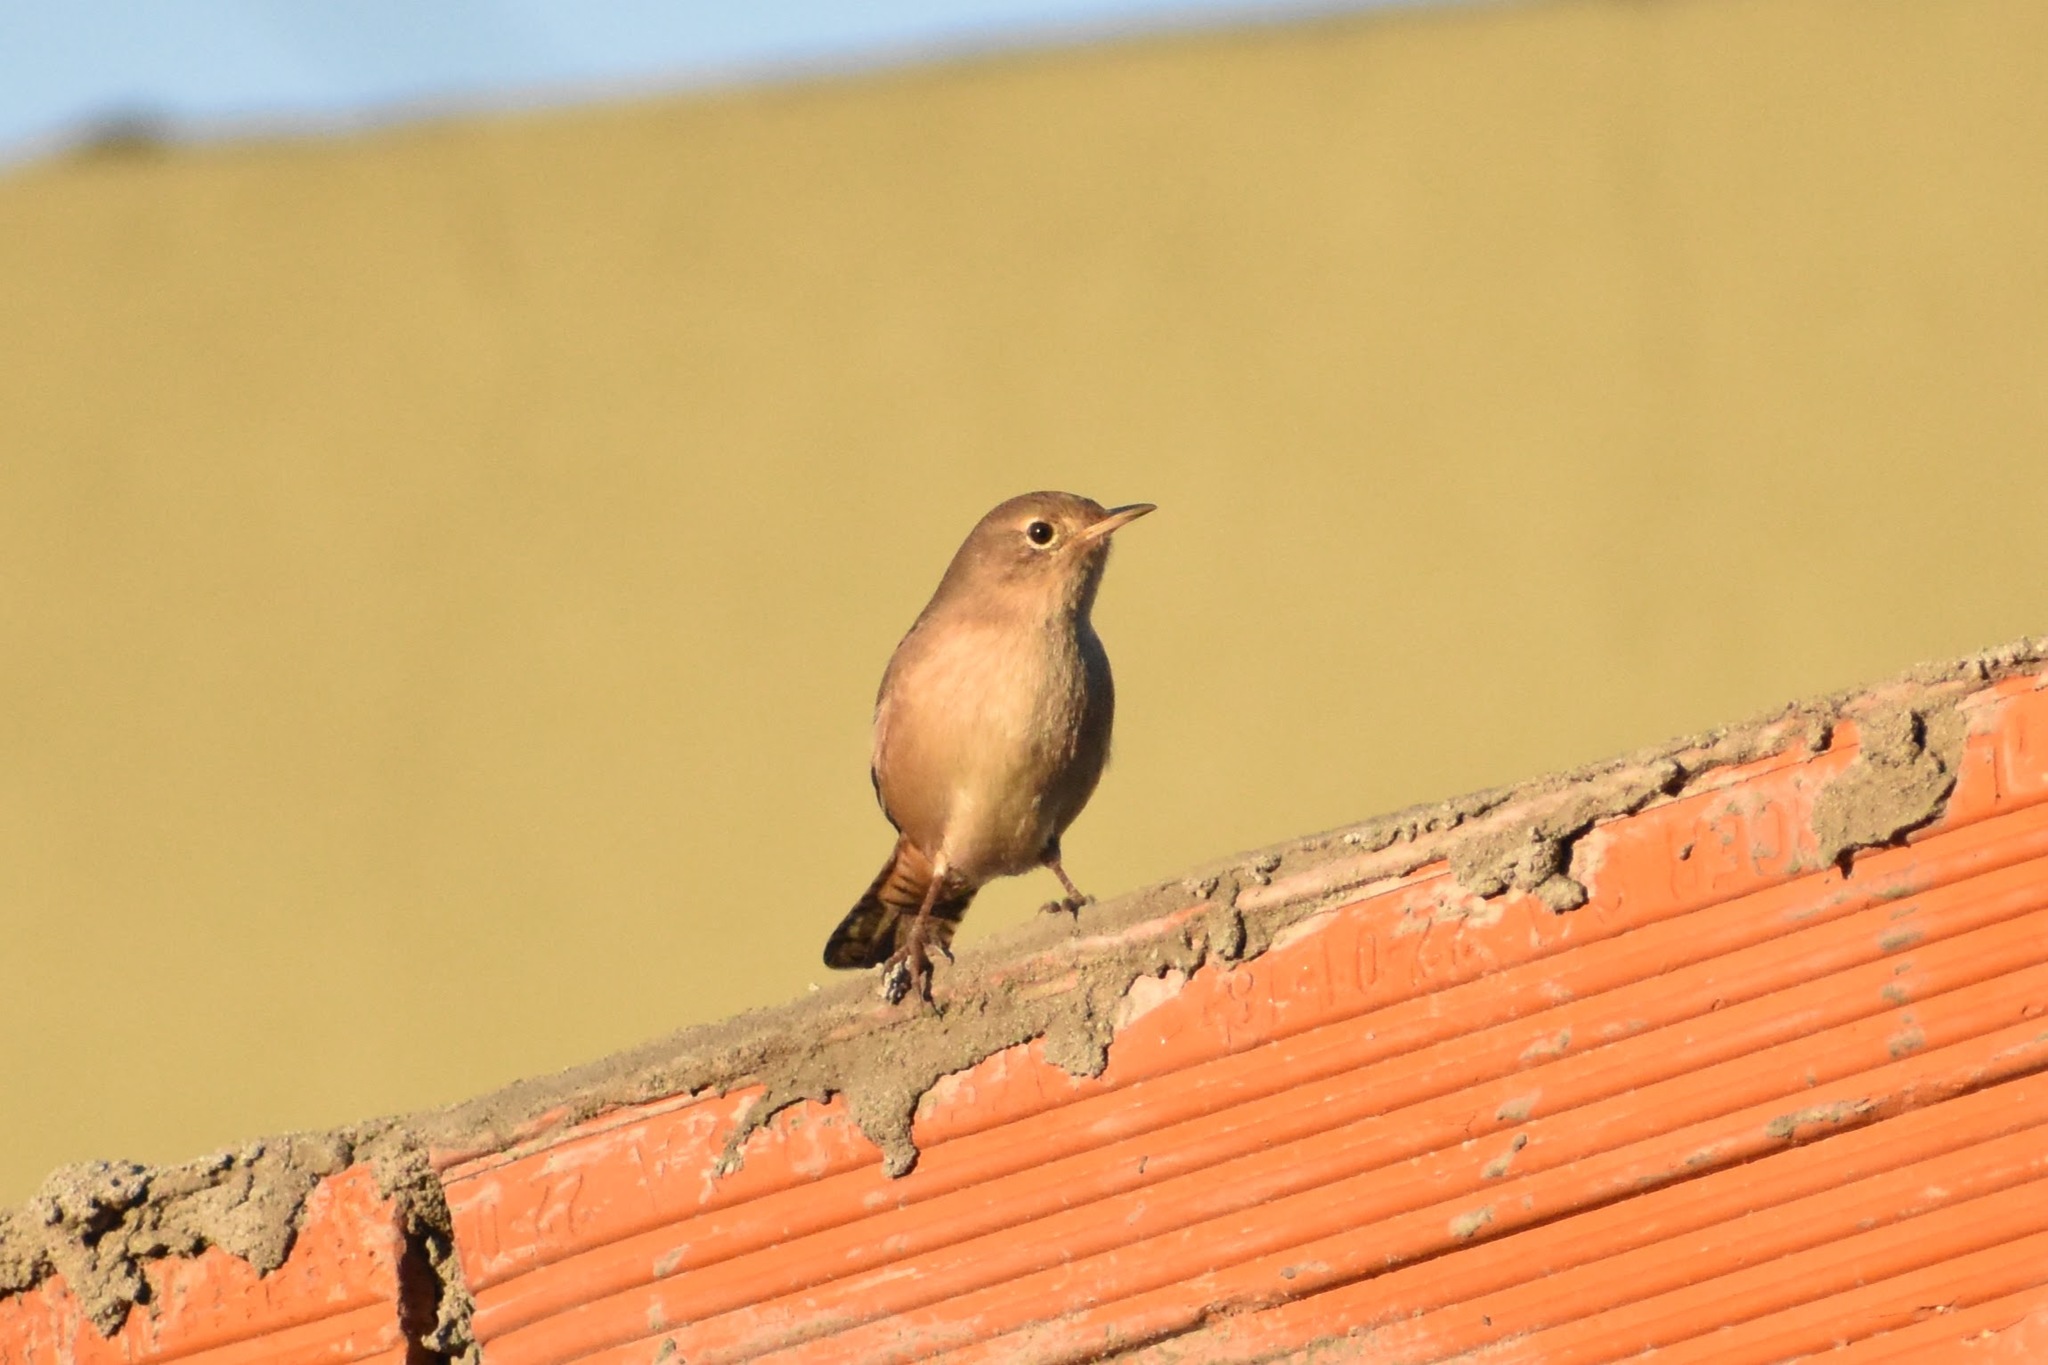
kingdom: Animalia
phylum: Chordata
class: Aves
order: Passeriformes
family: Troglodytidae
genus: Troglodytes
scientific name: Troglodytes aedon
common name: House wren
